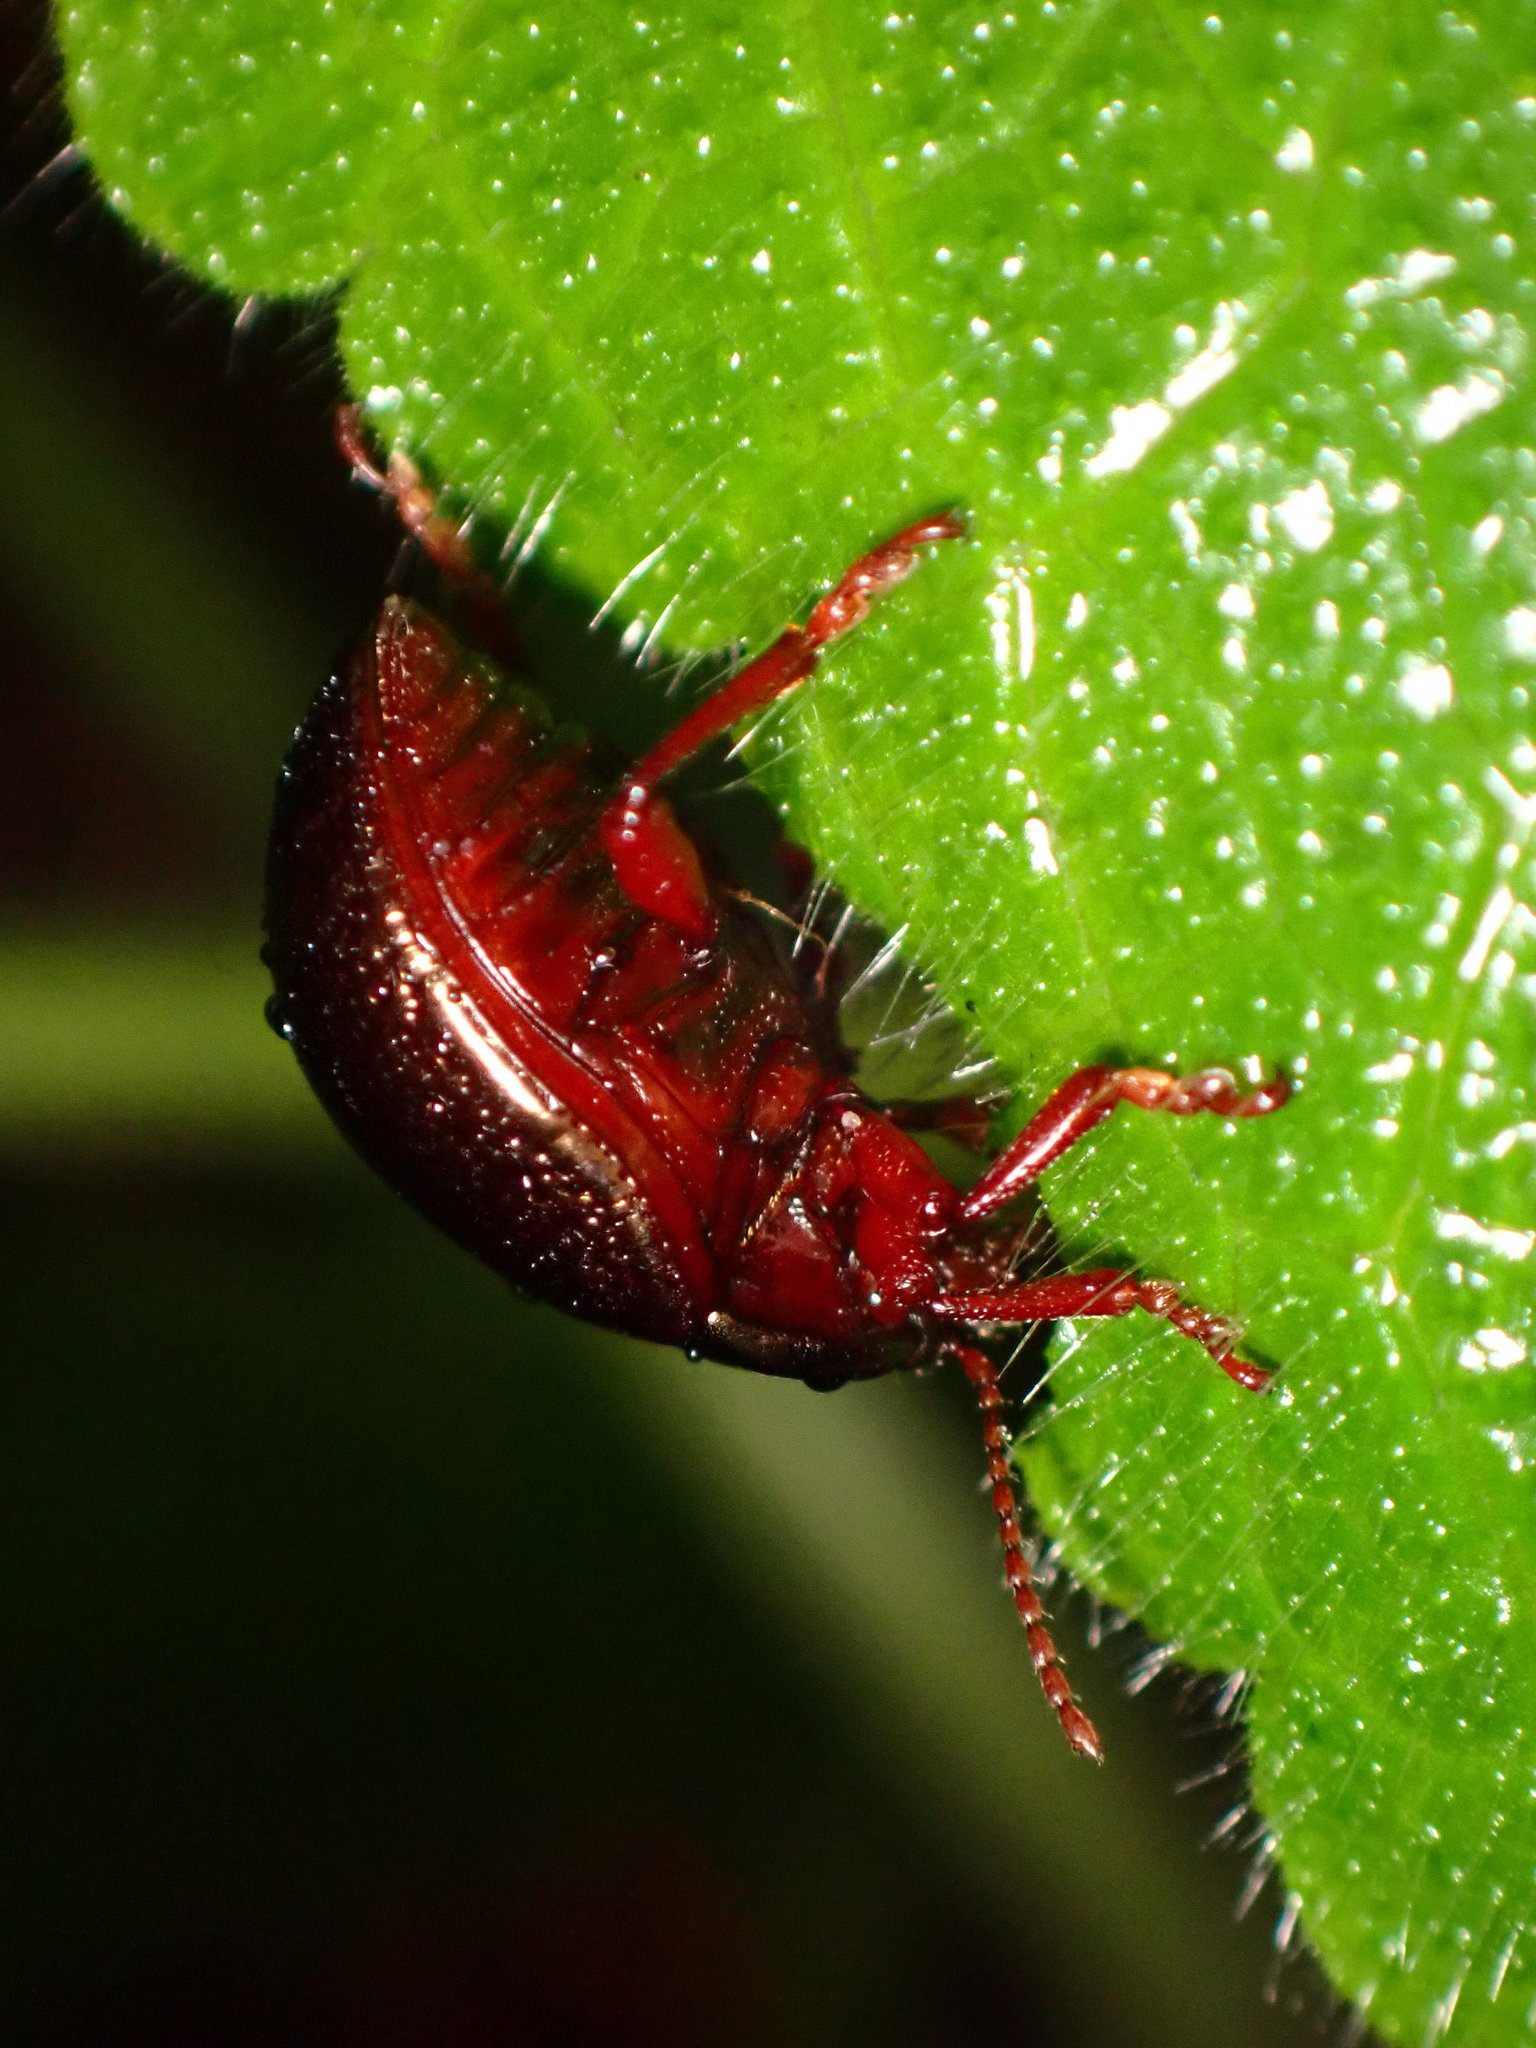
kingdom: Animalia
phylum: Arthropoda
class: Insecta
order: Coleoptera
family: Chrysomelidae
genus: Chrysolina
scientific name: Chrysolina bankii
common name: Leaf beetle
